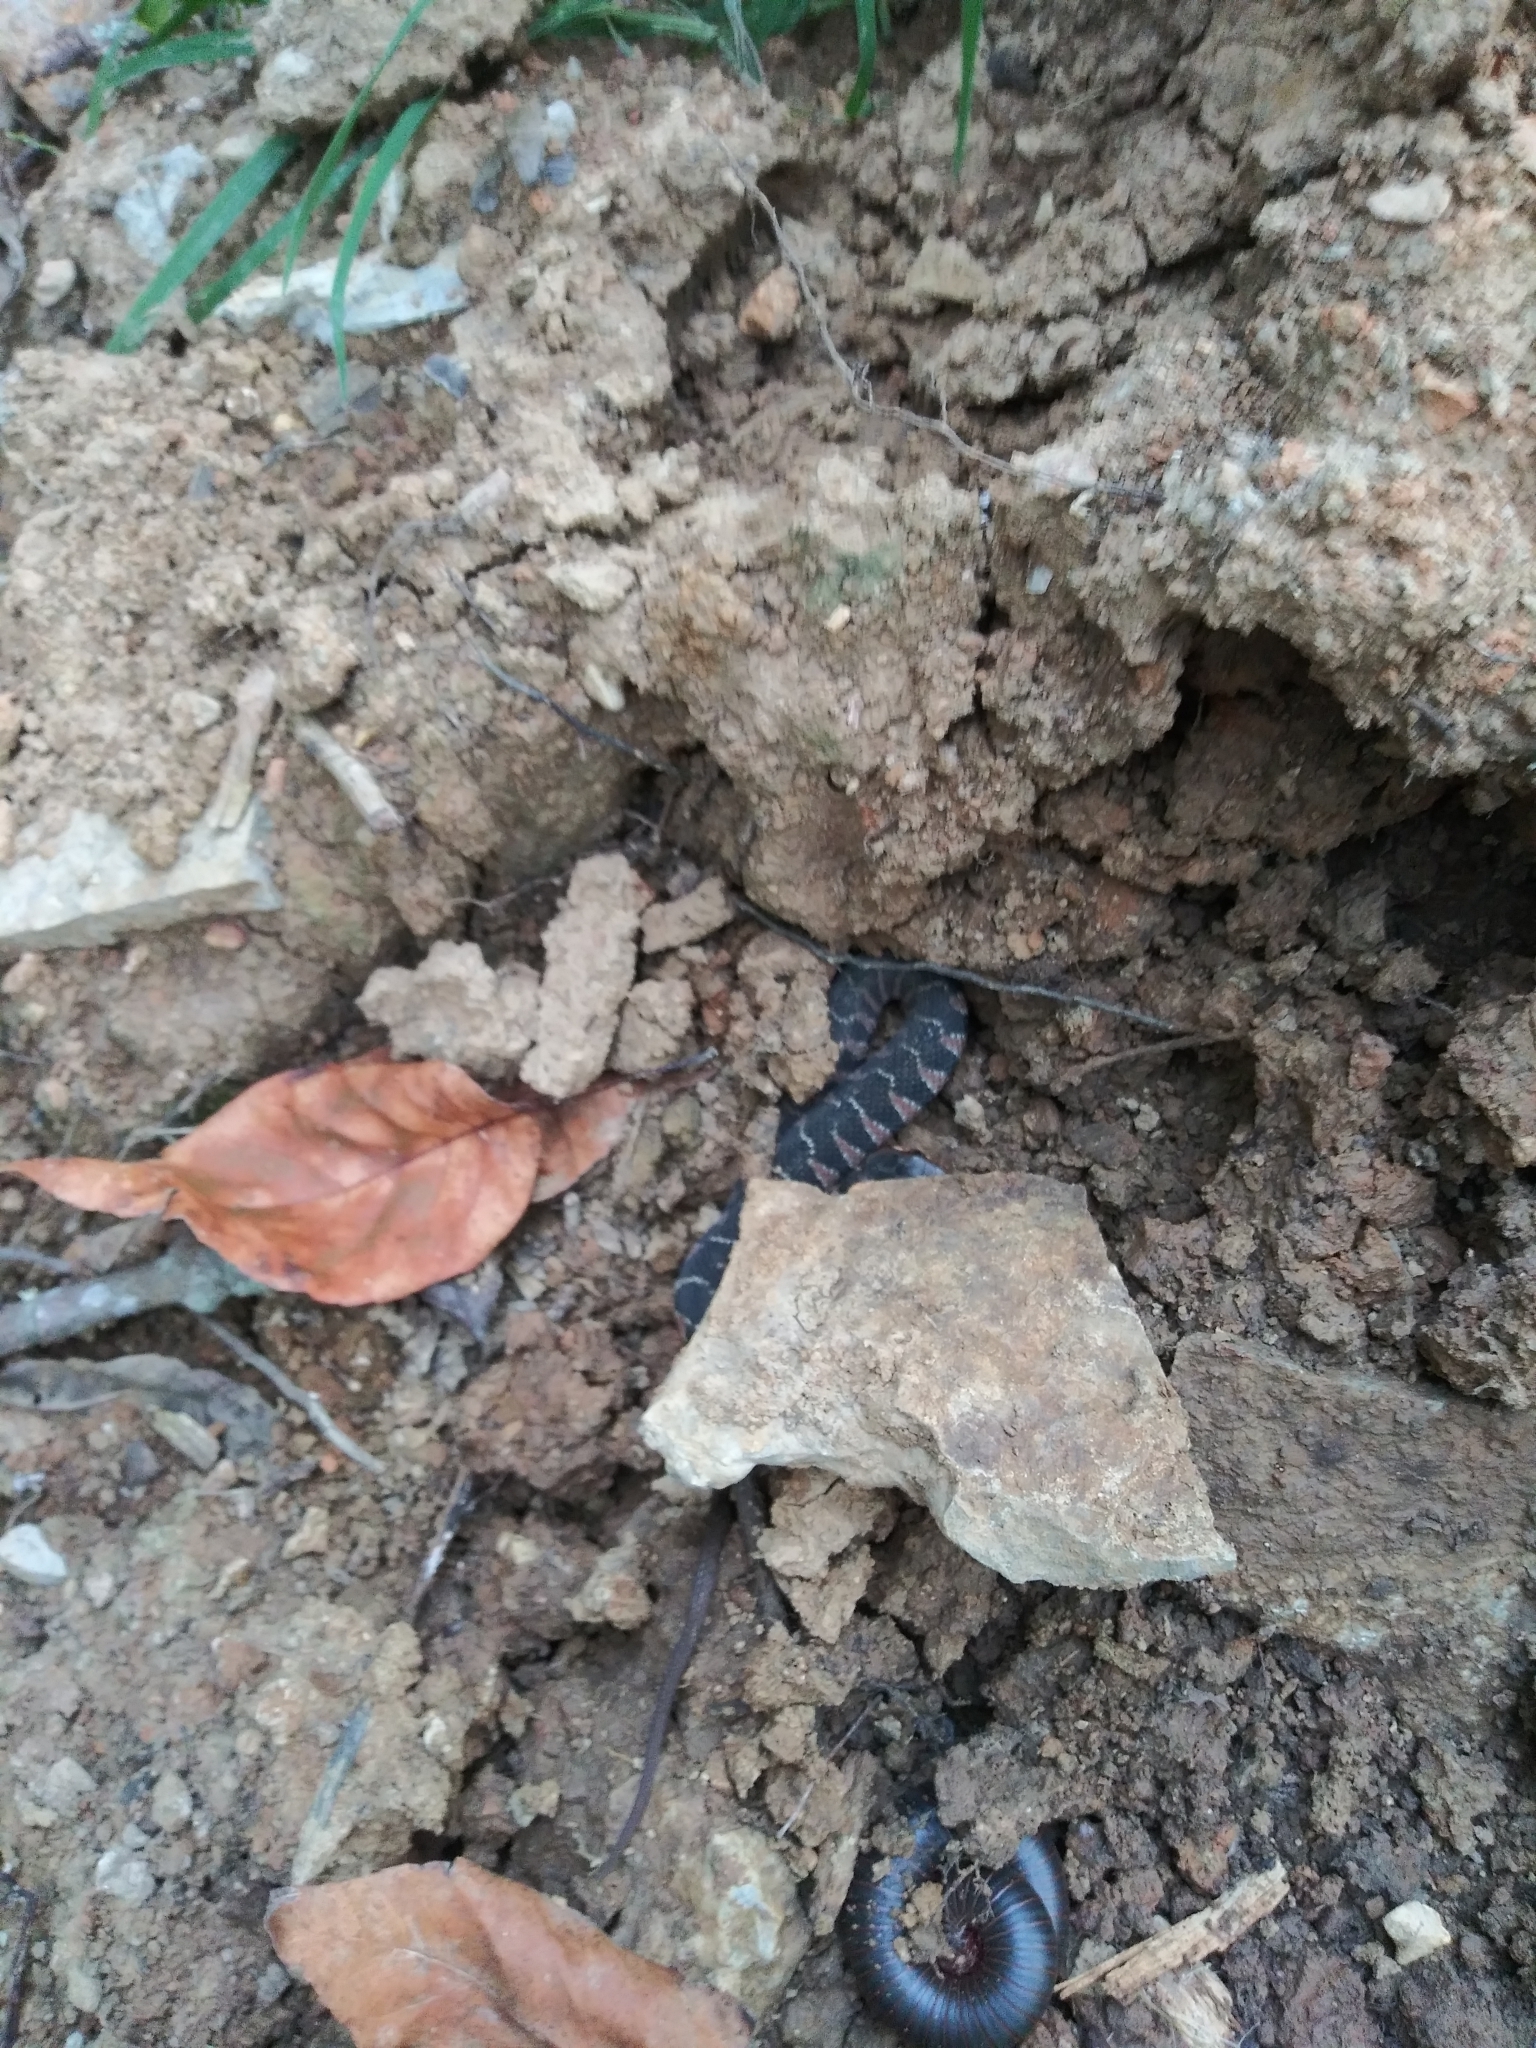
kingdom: Animalia
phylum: Chordata
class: Squamata
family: Colubridae
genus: Nerodia
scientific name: Nerodia erythrogaster
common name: Plainbelly water snake
